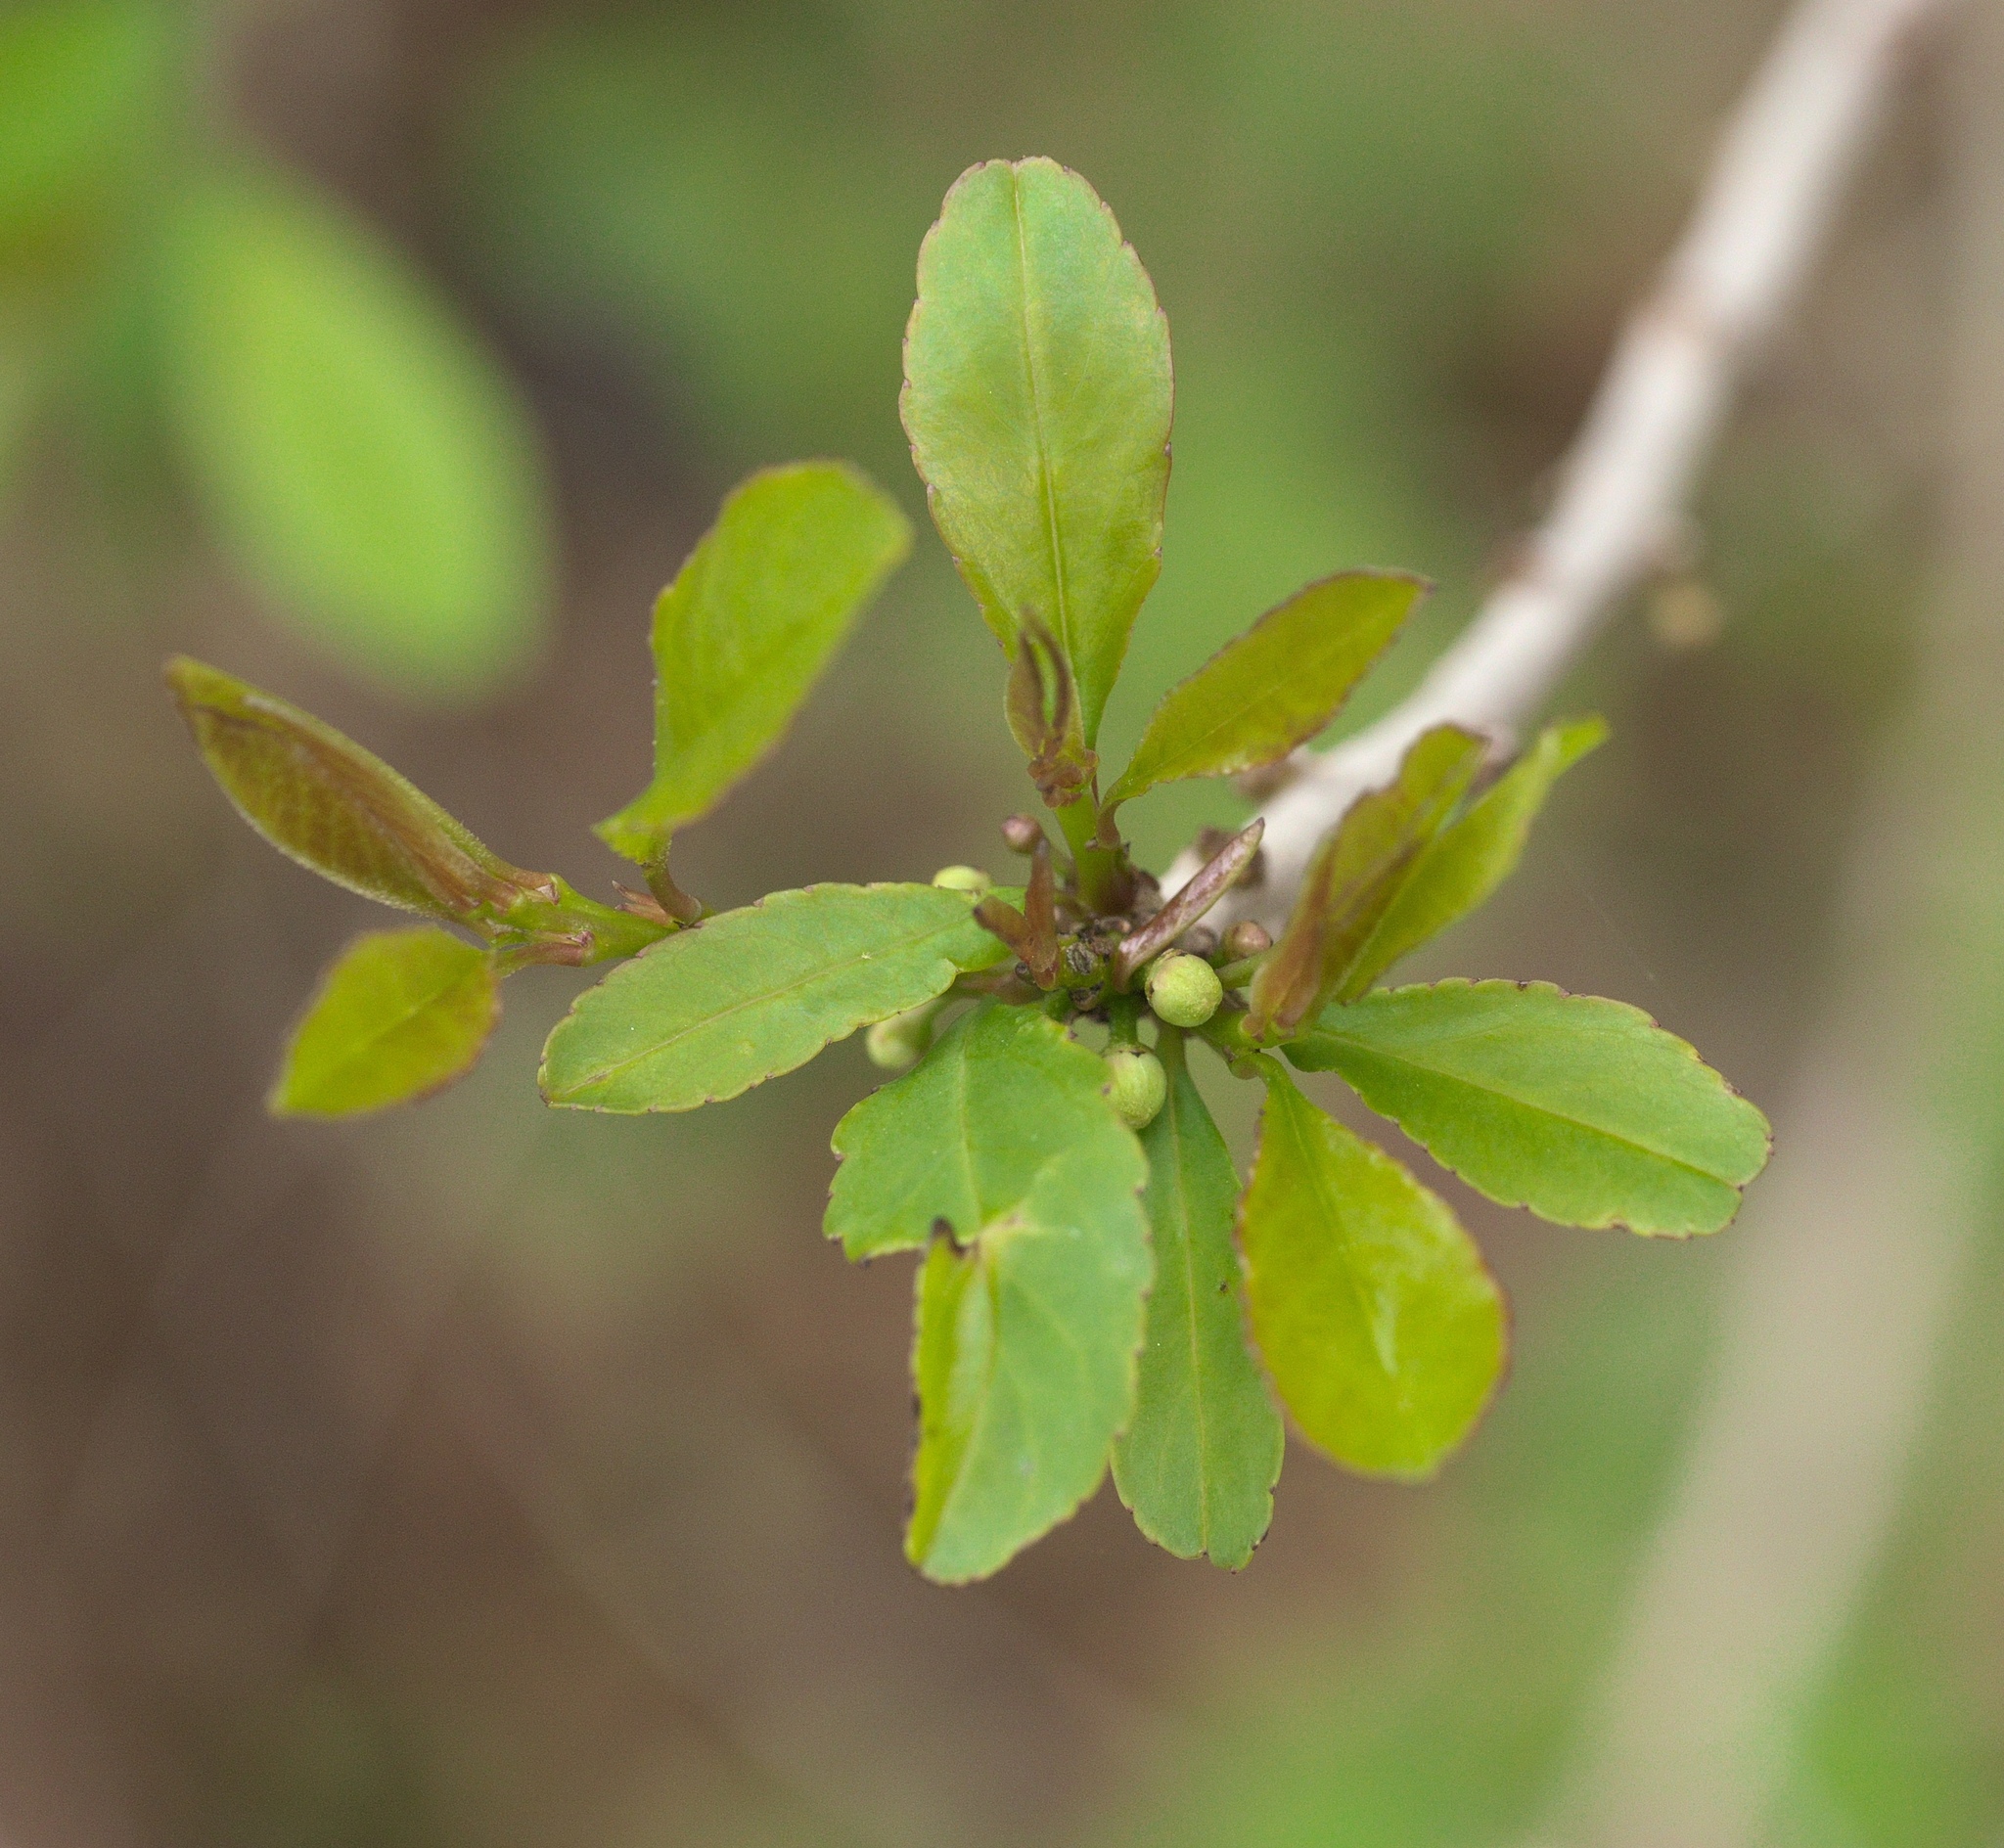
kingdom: Plantae
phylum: Tracheophyta
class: Magnoliopsida
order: Aquifoliales
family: Aquifoliaceae
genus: Ilex
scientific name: Ilex decidua
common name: Possum-haw
